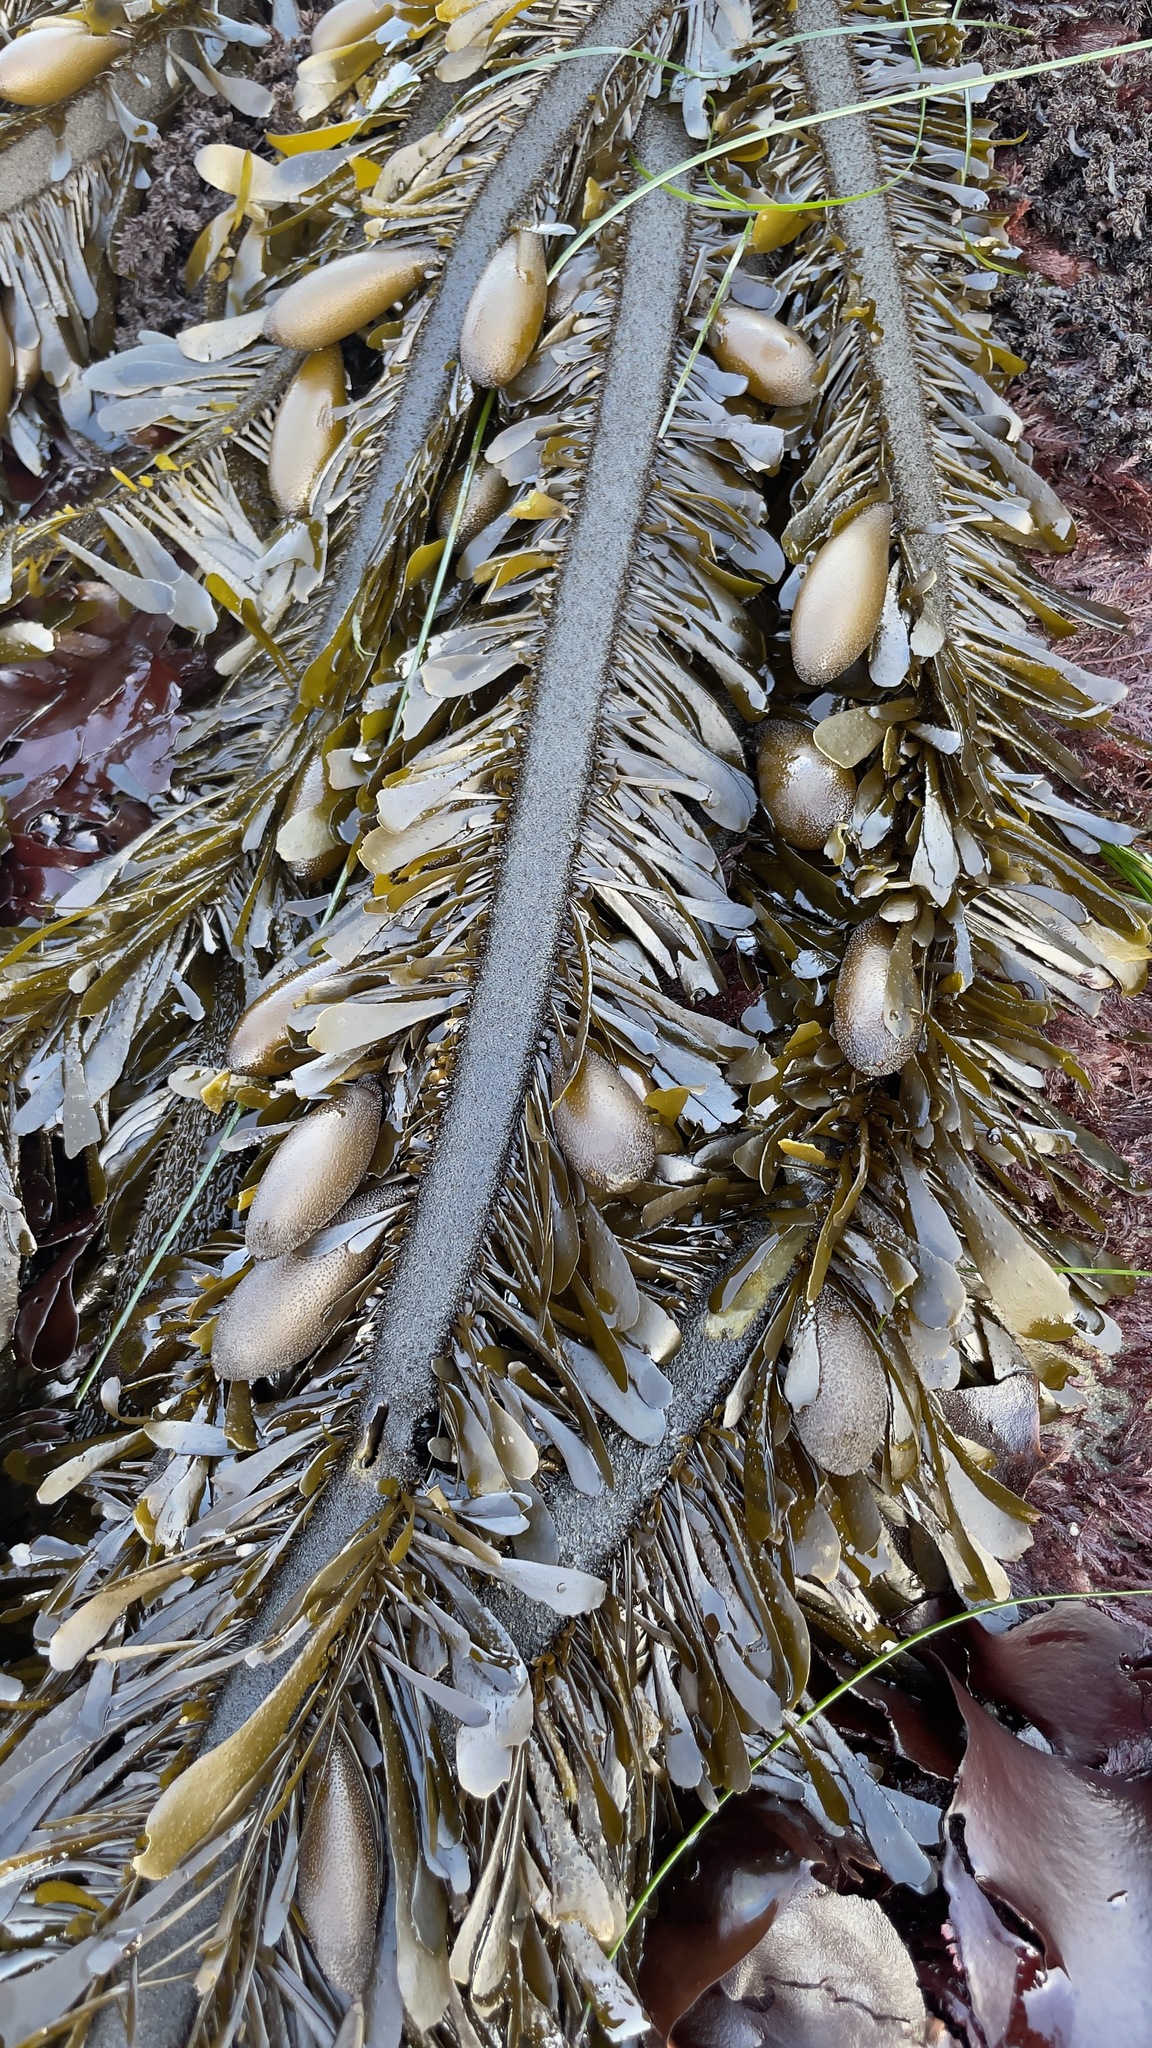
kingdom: Chromista
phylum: Ochrophyta
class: Phaeophyceae
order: Laminariales
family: Lessoniaceae
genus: Egregia
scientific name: Egregia menziesii
